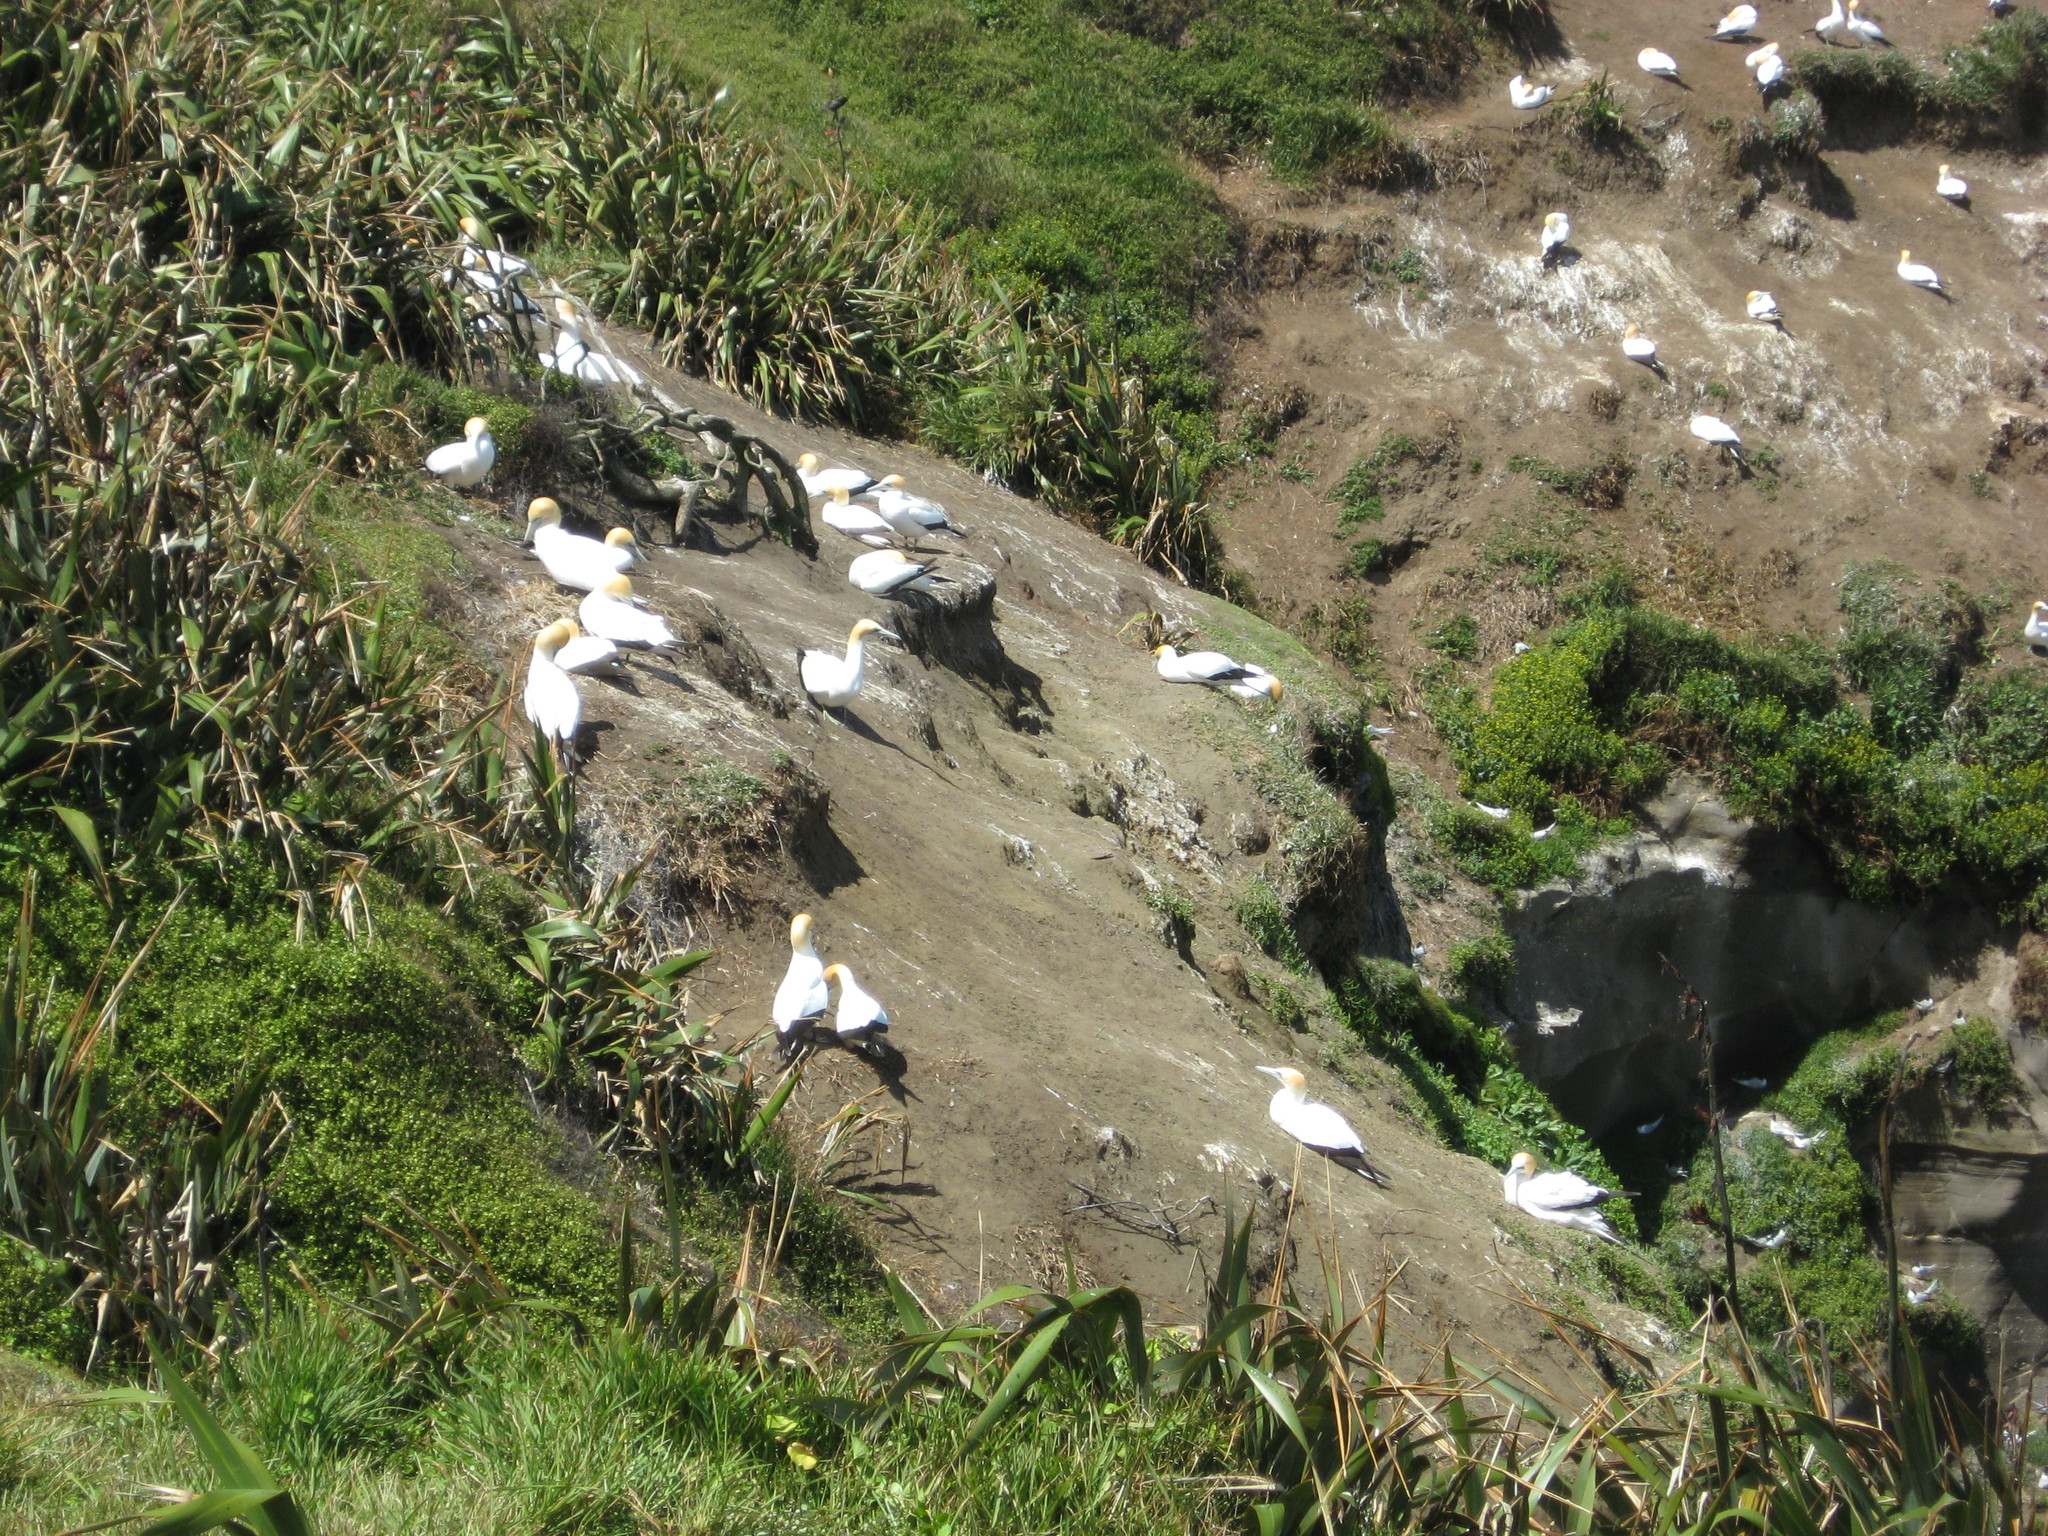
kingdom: Animalia
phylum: Chordata
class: Aves
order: Suliformes
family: Sulidae
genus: Morus
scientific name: Morus serrator
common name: Australasian gannet
